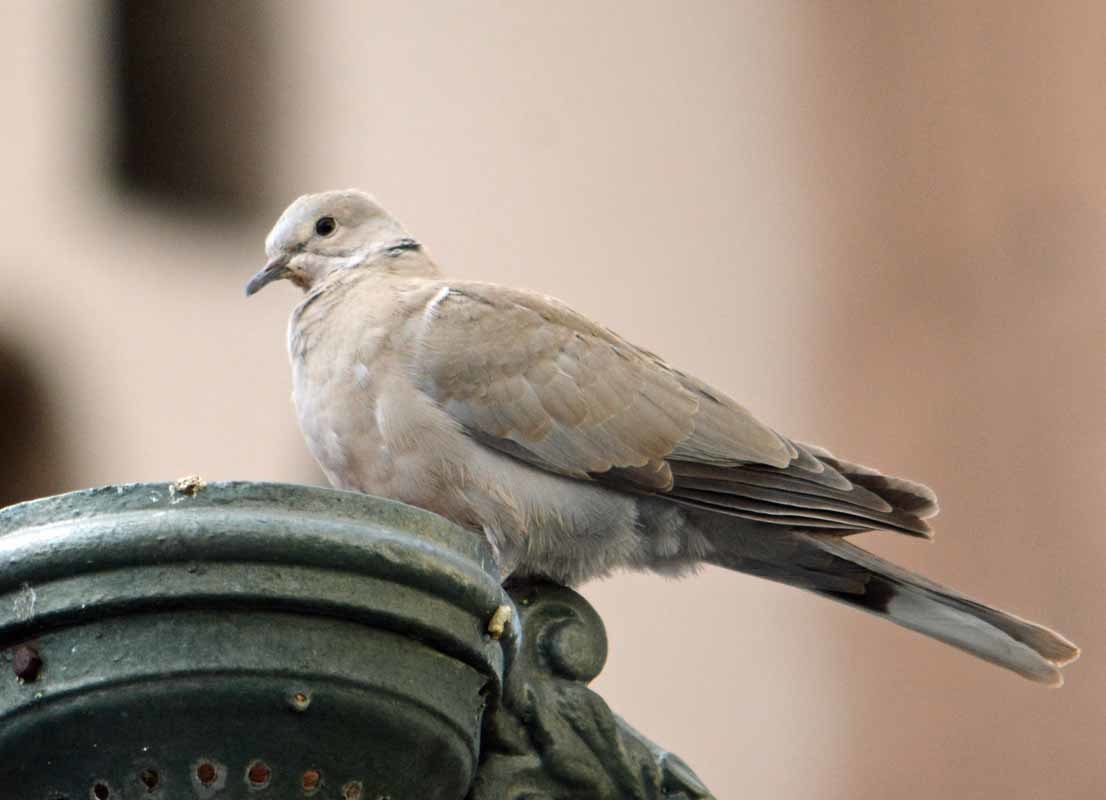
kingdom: Animalia
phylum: Chordata
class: Aves
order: Columbiformes
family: Columbidae
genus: Streptopelia
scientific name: Streptopelia decaocto
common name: Eurasian collared dove
